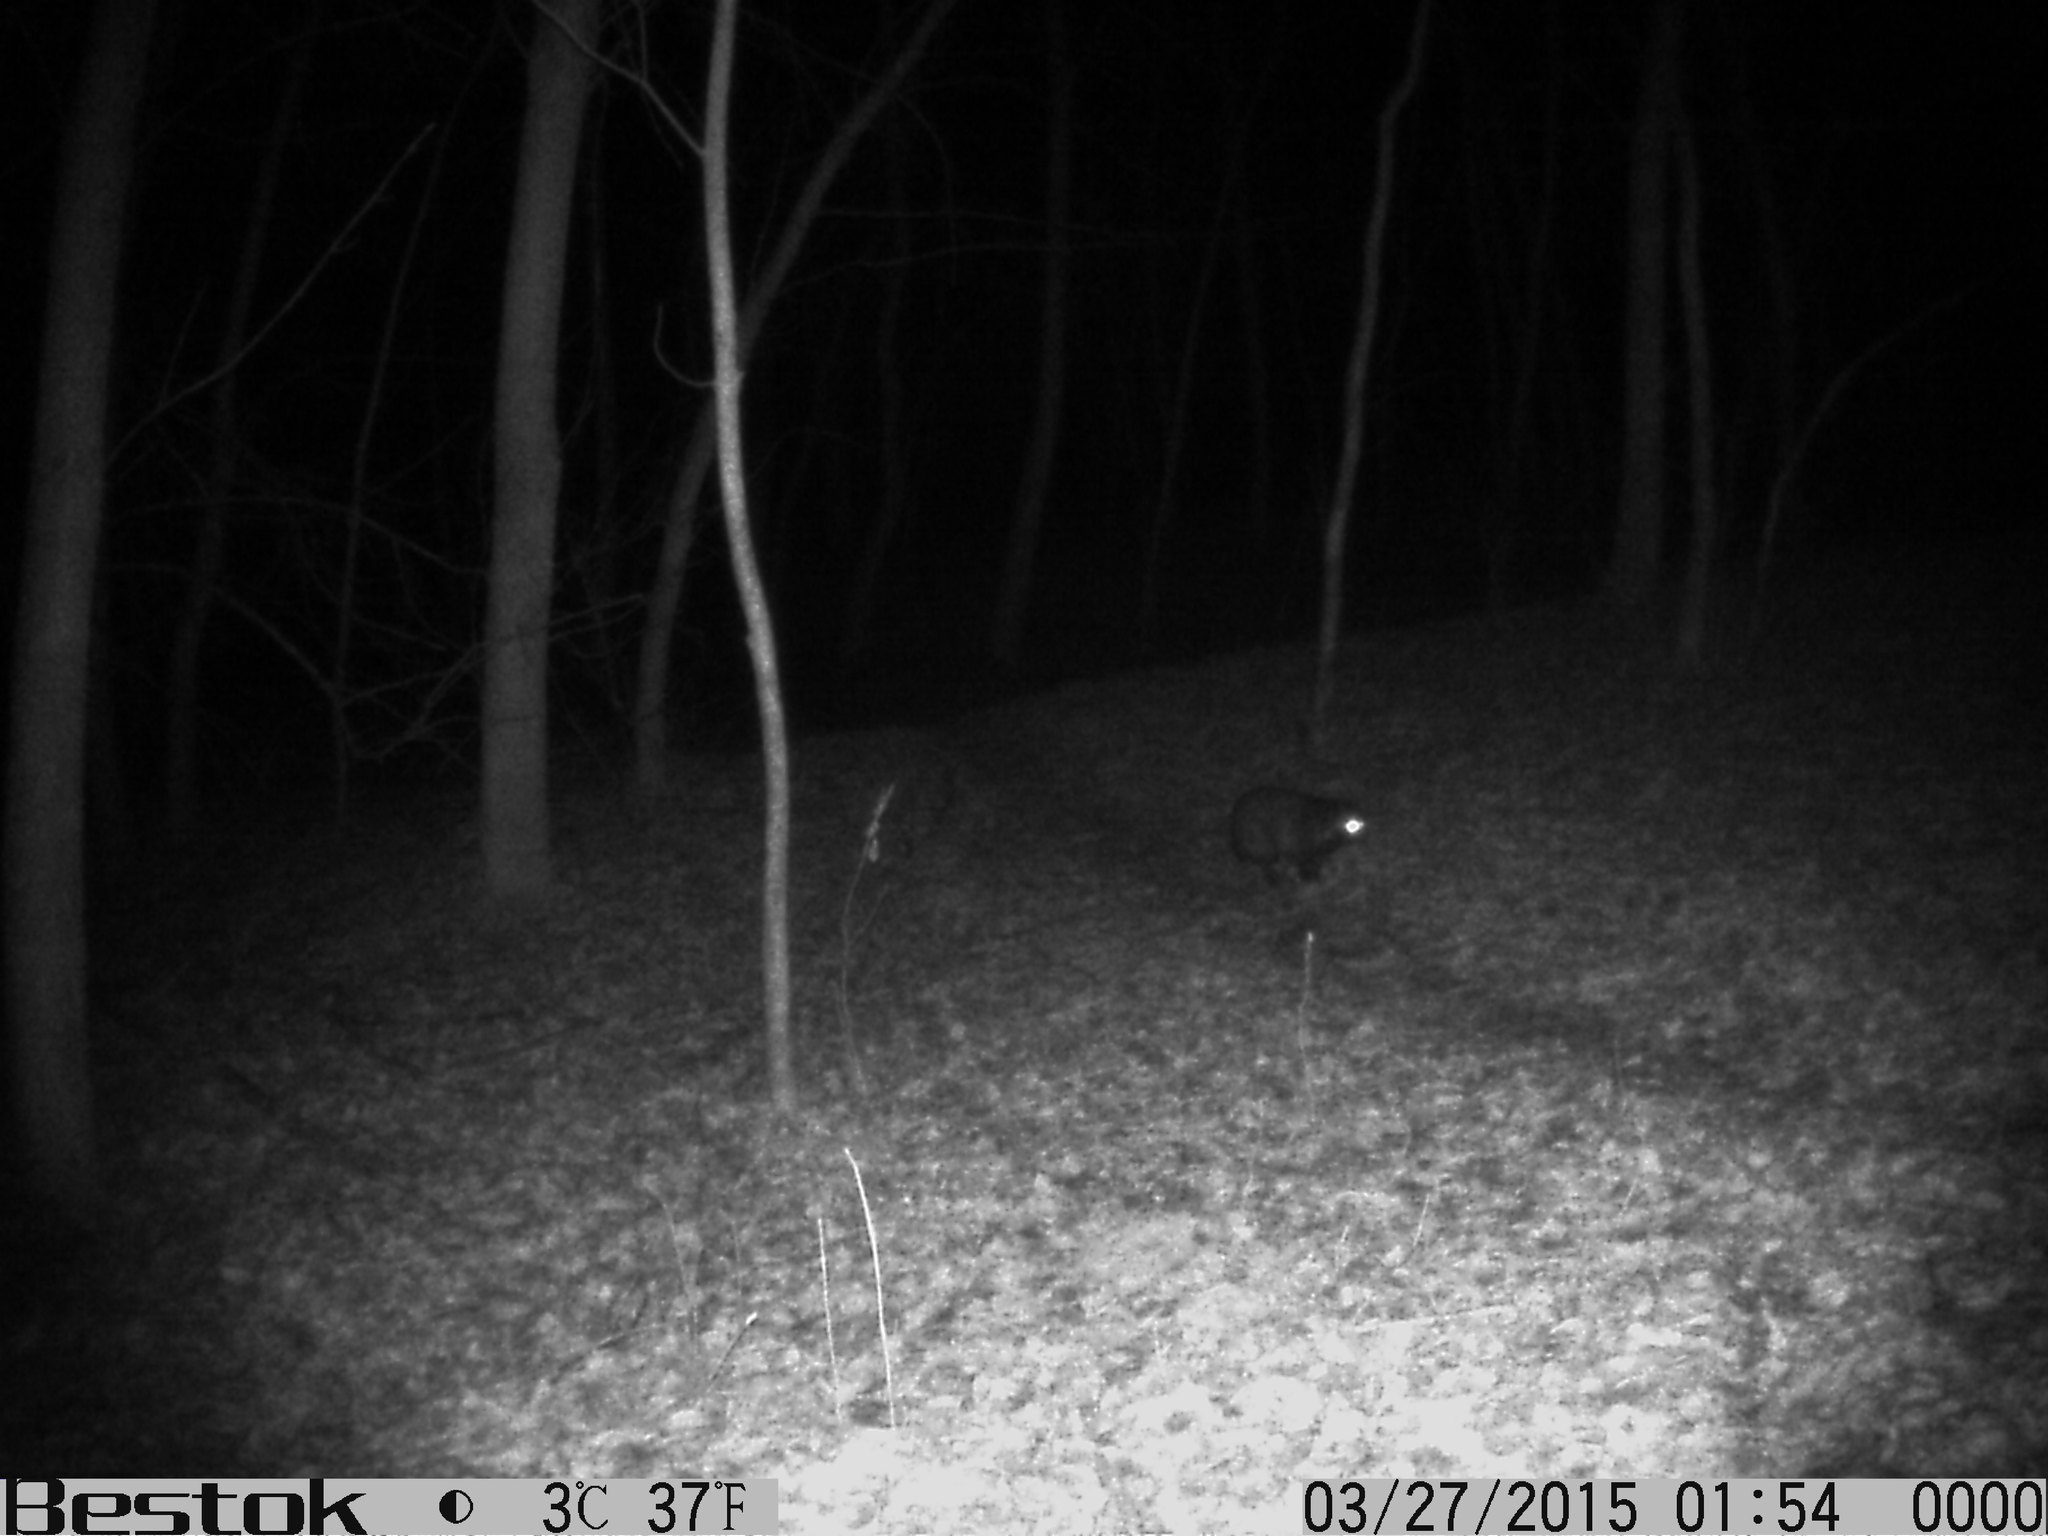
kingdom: Animalia
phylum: Chordata
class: Mammalia
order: Carnivora
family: Canidae
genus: Nyctereutes
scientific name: Nyctereutes procyonoides
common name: Raccoon dog
